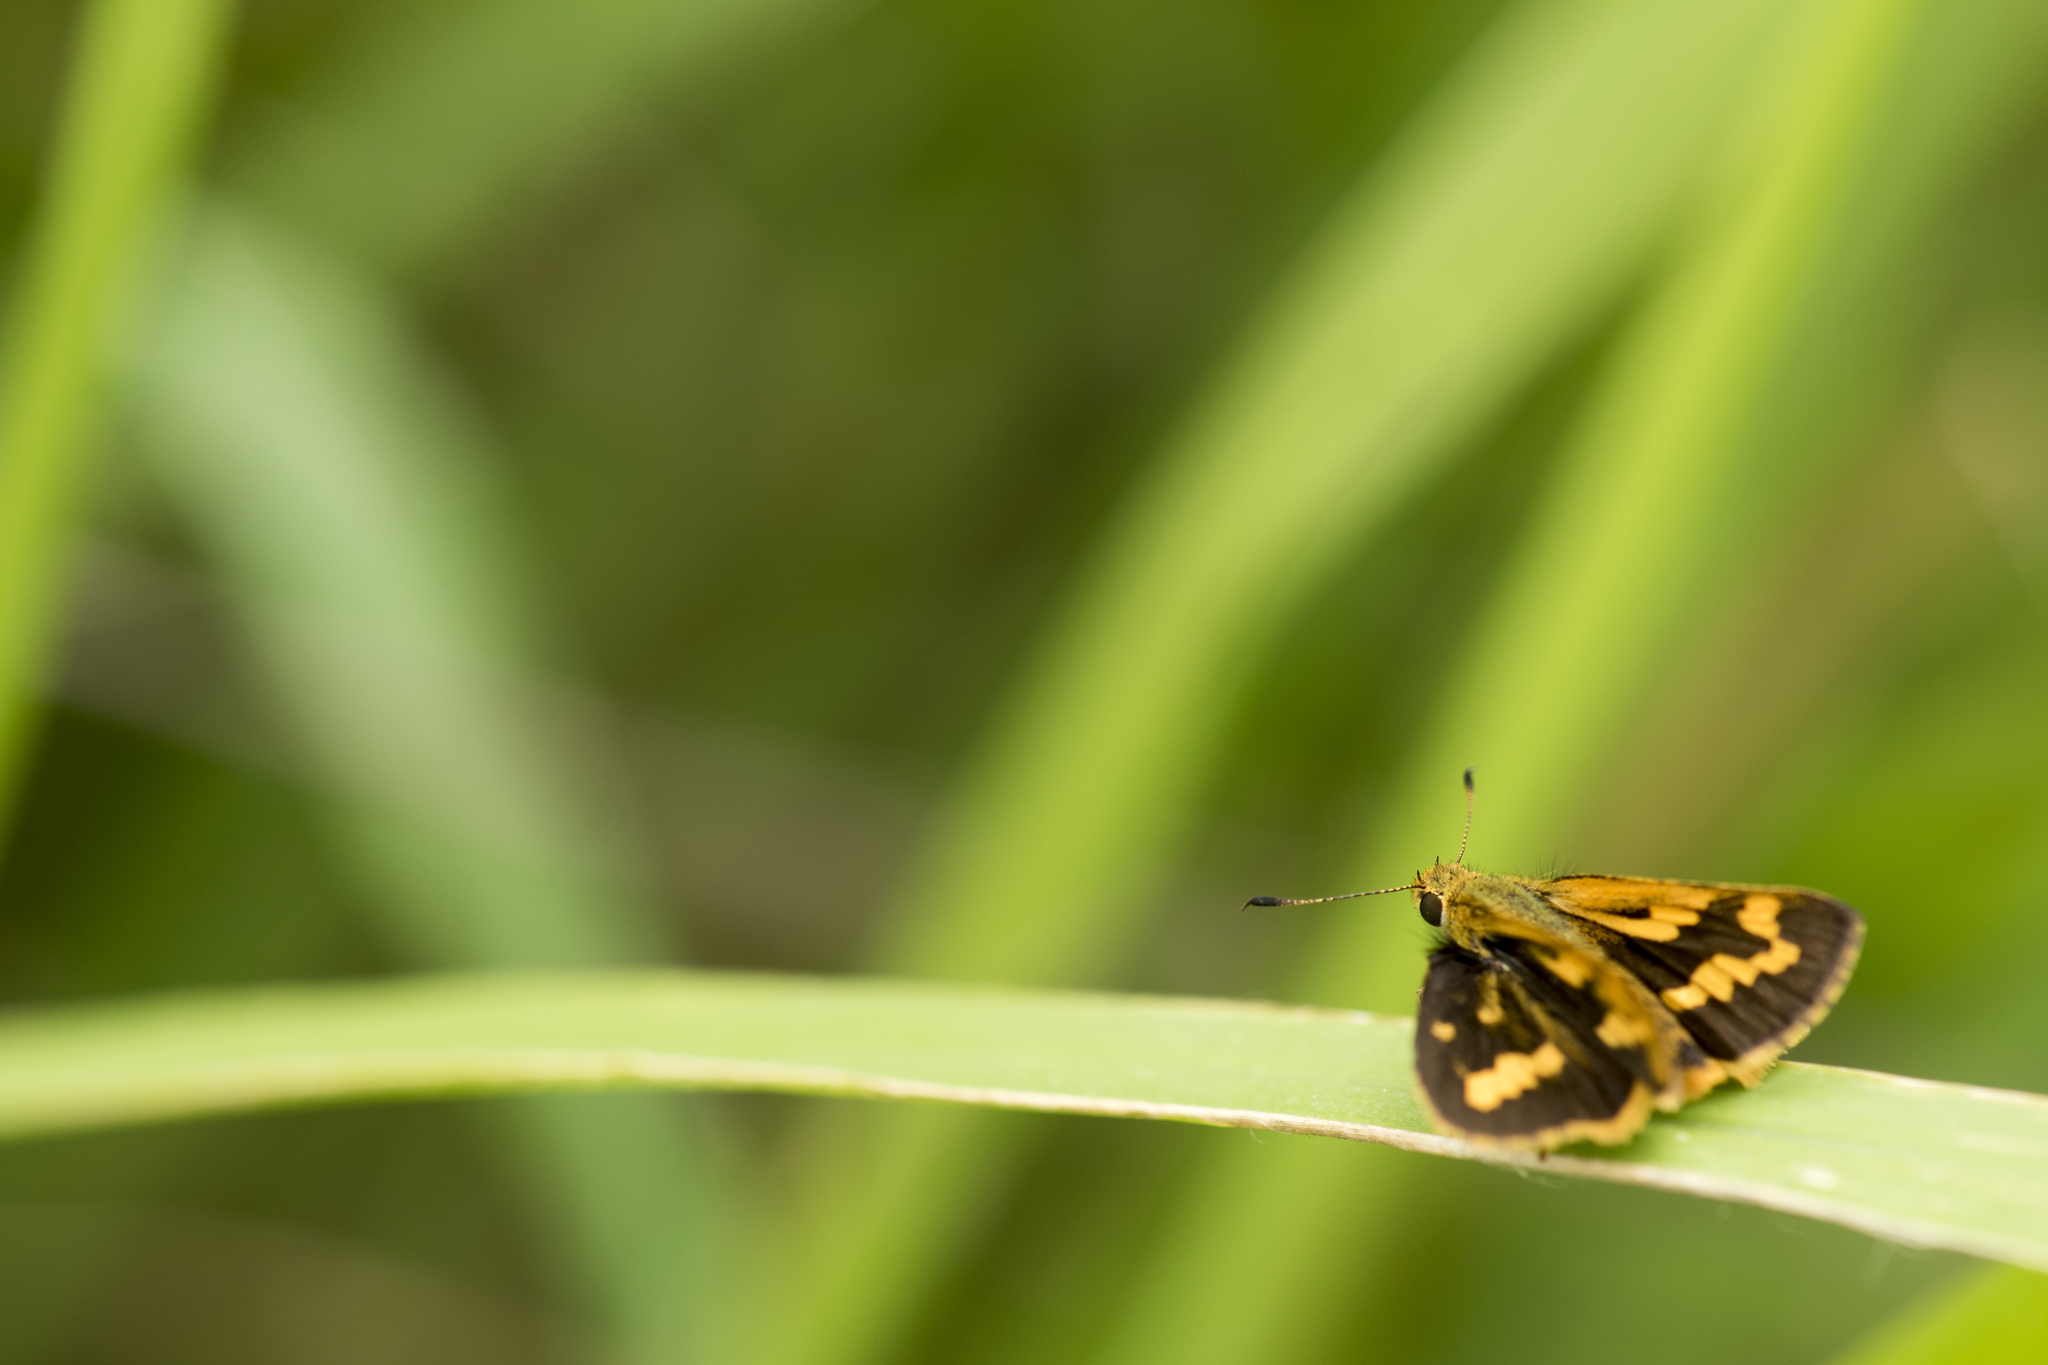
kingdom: Animalia
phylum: Arthropoda
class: Insecta
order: Lepidoptera
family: Hesperiidae
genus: Potanthus
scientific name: Potanthus confucius
